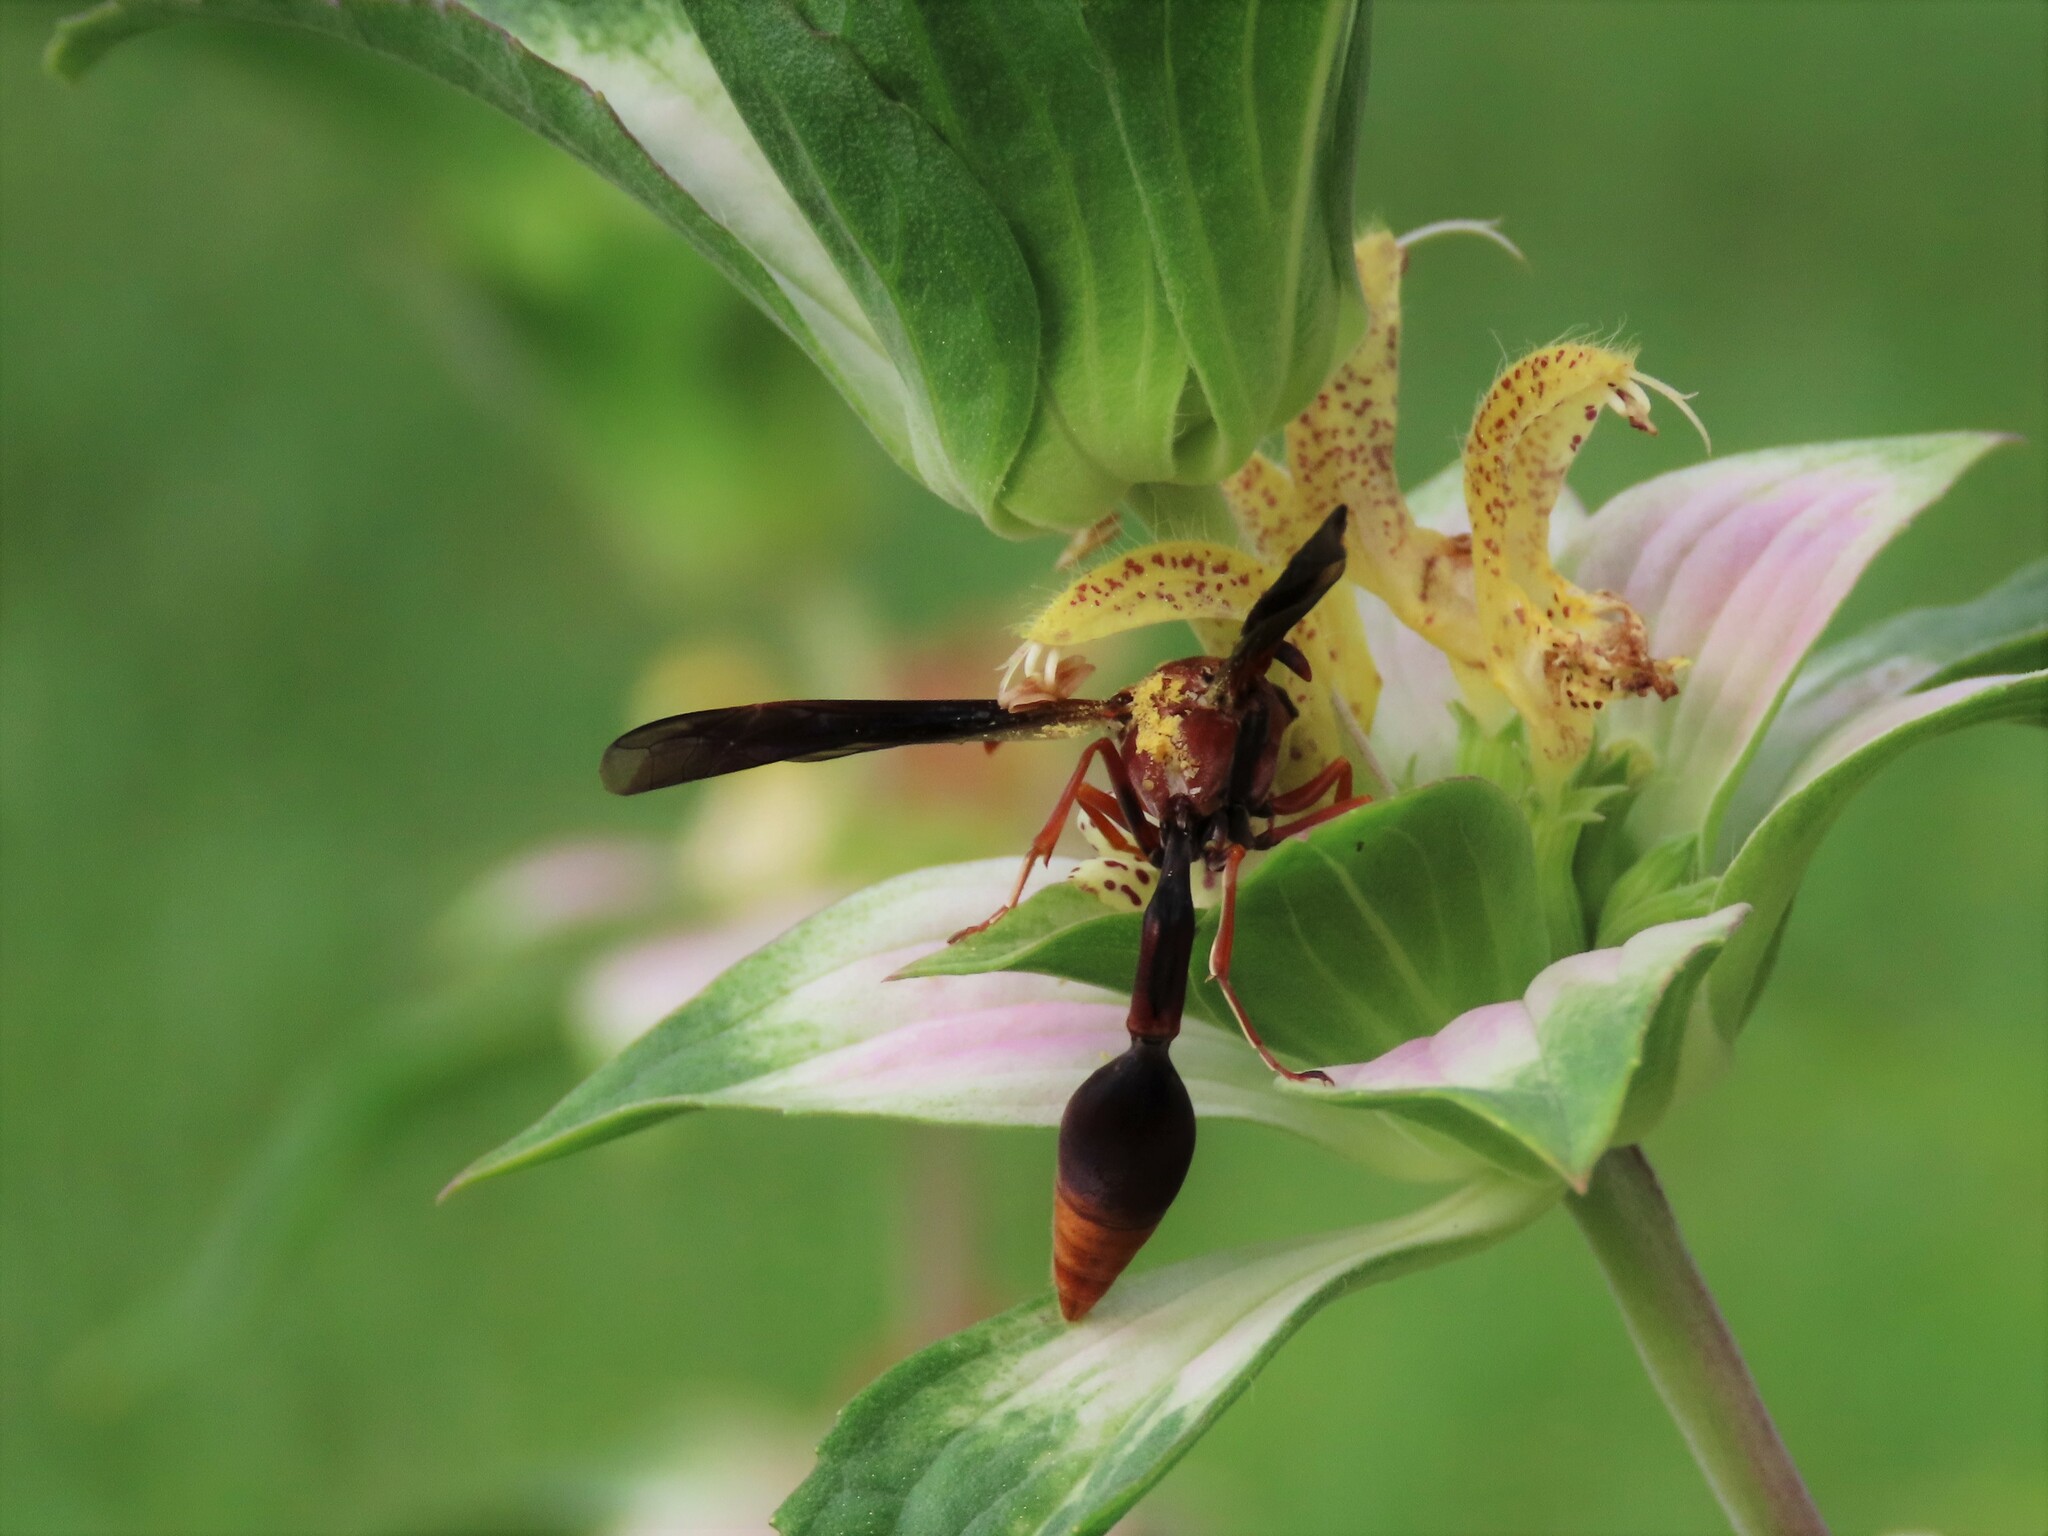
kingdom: Animalia
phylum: Arthropoda
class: Insecta
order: Hymenoptera
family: Eumenidae
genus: Zeta
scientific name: Zeta argillaceum
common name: Potter wasp
